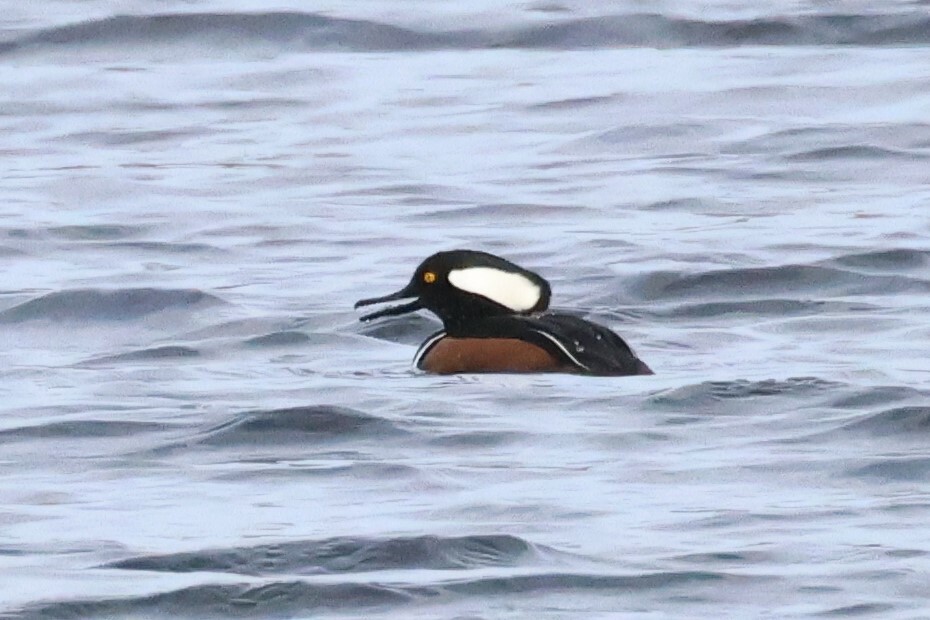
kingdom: Animalia
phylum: Chordata
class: Aves
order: Anseriformes
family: Anatidae
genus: Lophodytes
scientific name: Lophodytes cucullatus
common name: Hooded merganser
